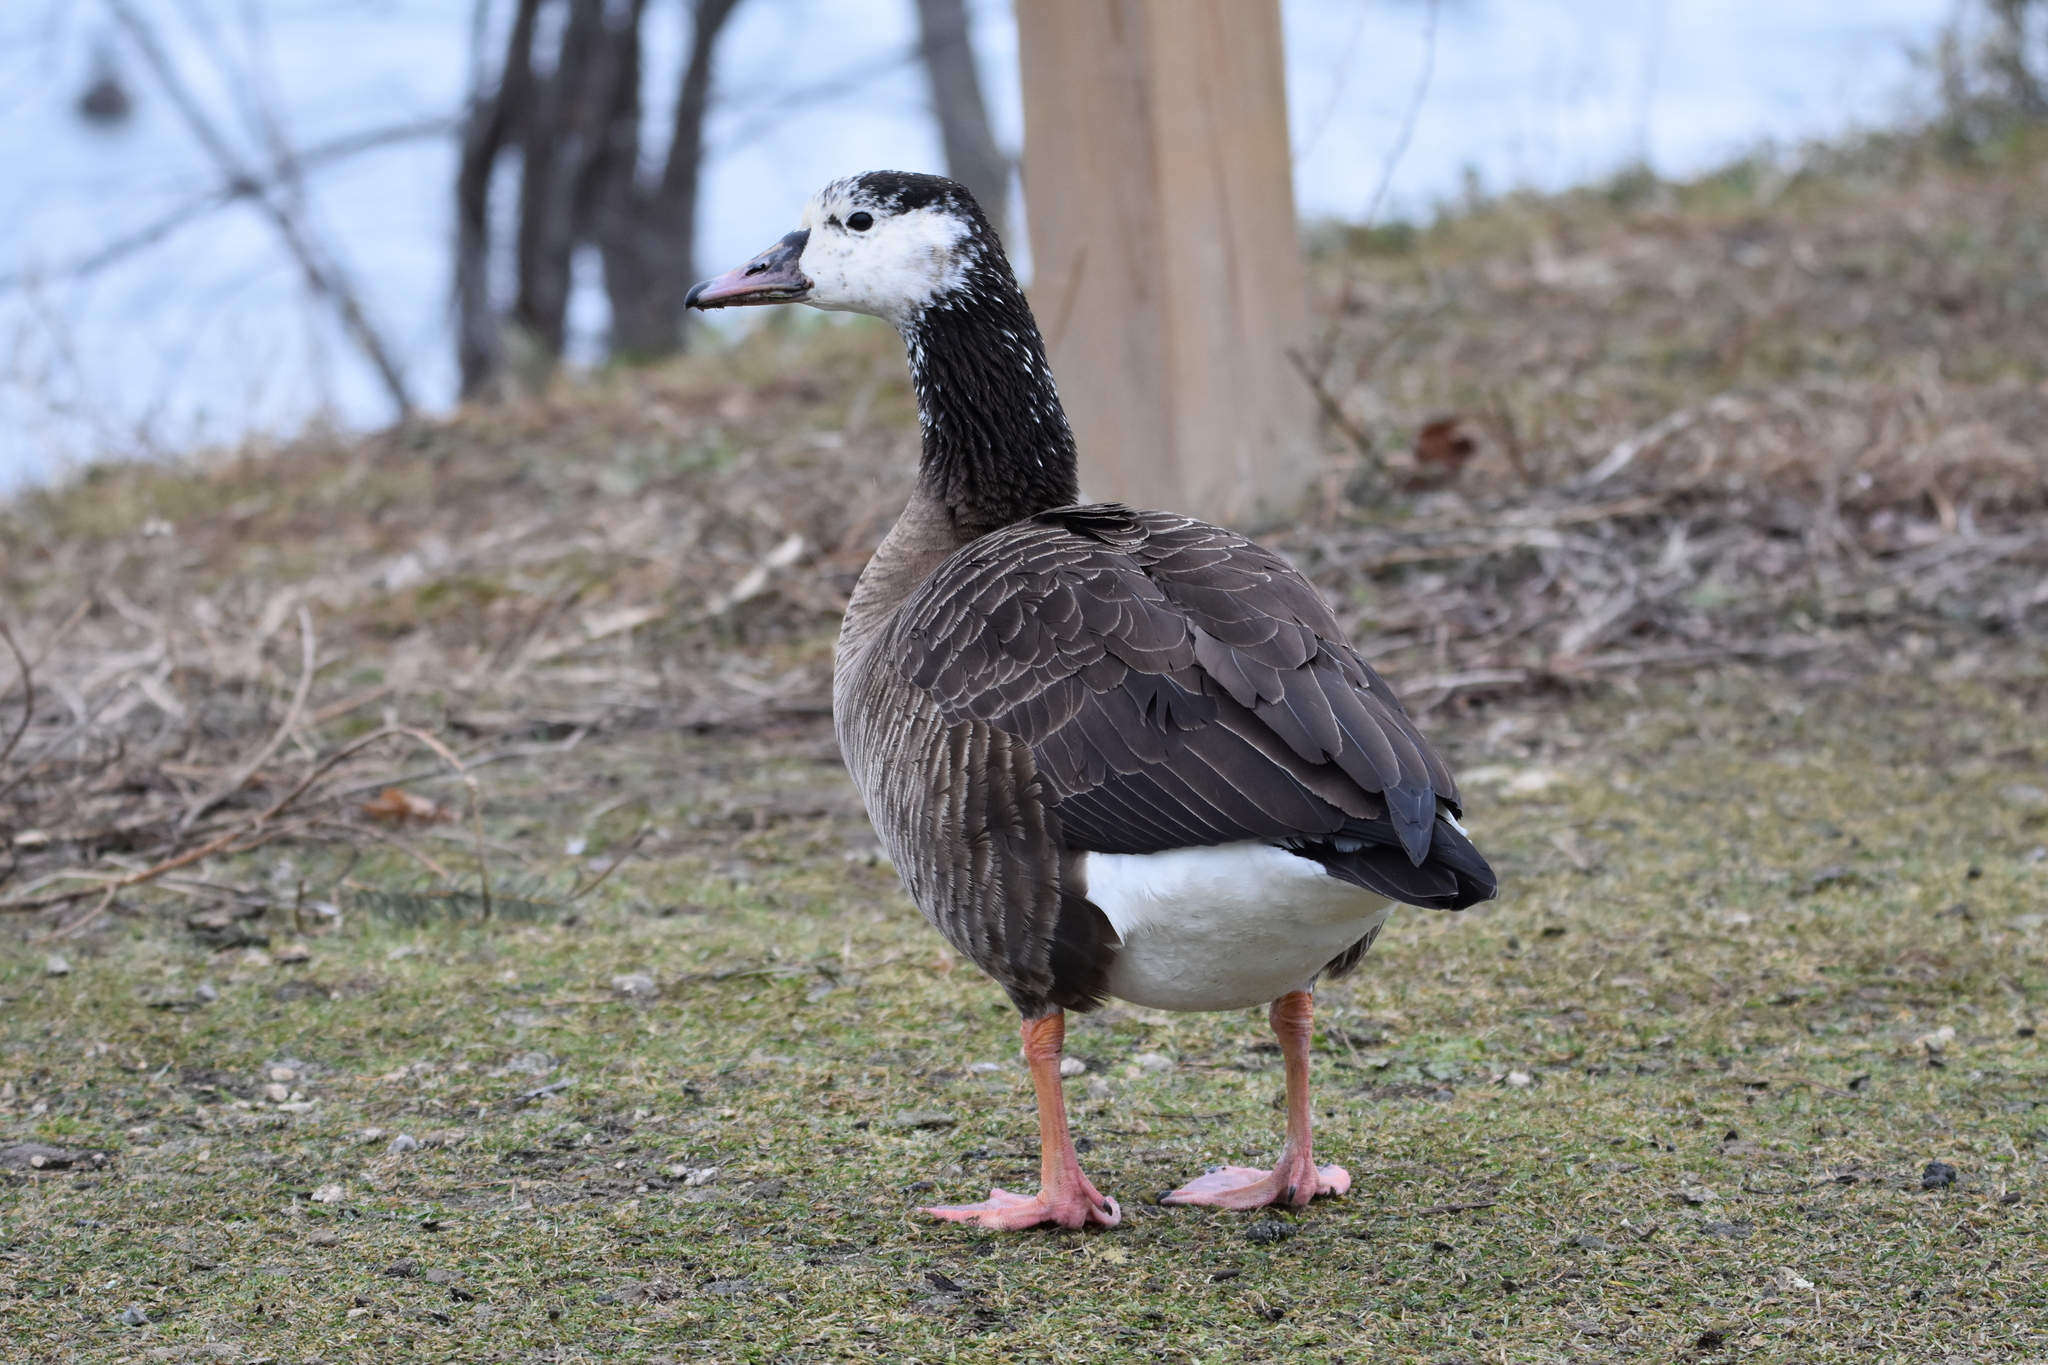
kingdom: Animalia
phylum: Chordata
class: Aves
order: Anseriformes
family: Anatidae
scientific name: Anatidae
